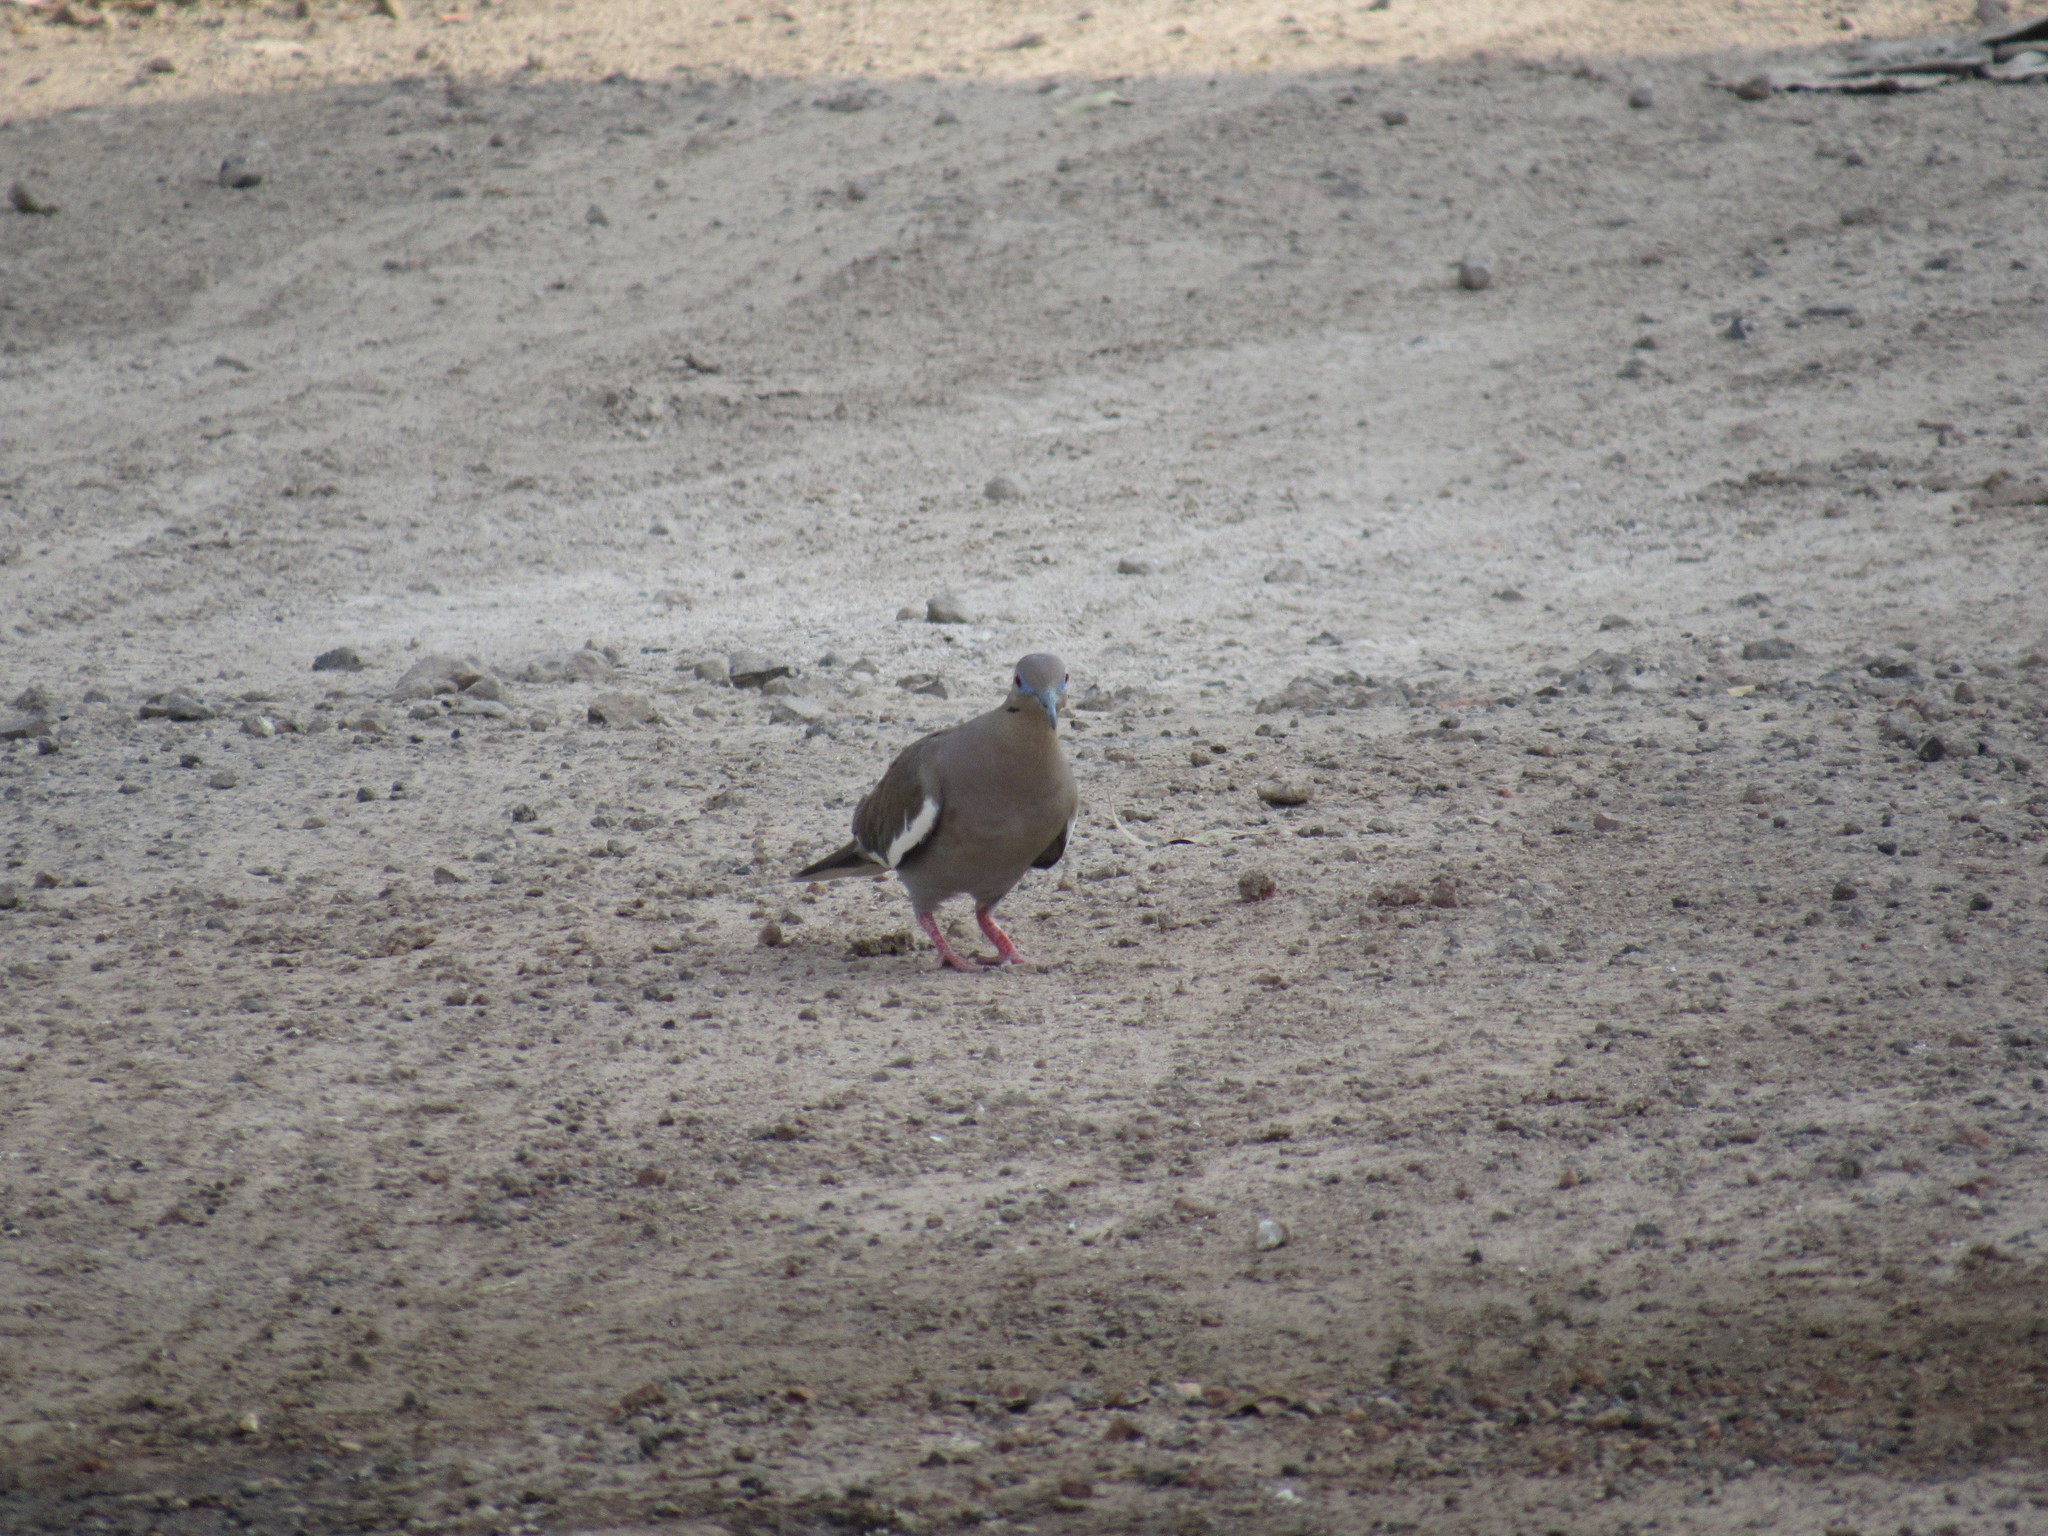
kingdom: Animalia
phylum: Chordata
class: Aves
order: Columbiformes
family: Columbidae
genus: Zenaida
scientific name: Zenaida asiatica
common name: White-winged dove
